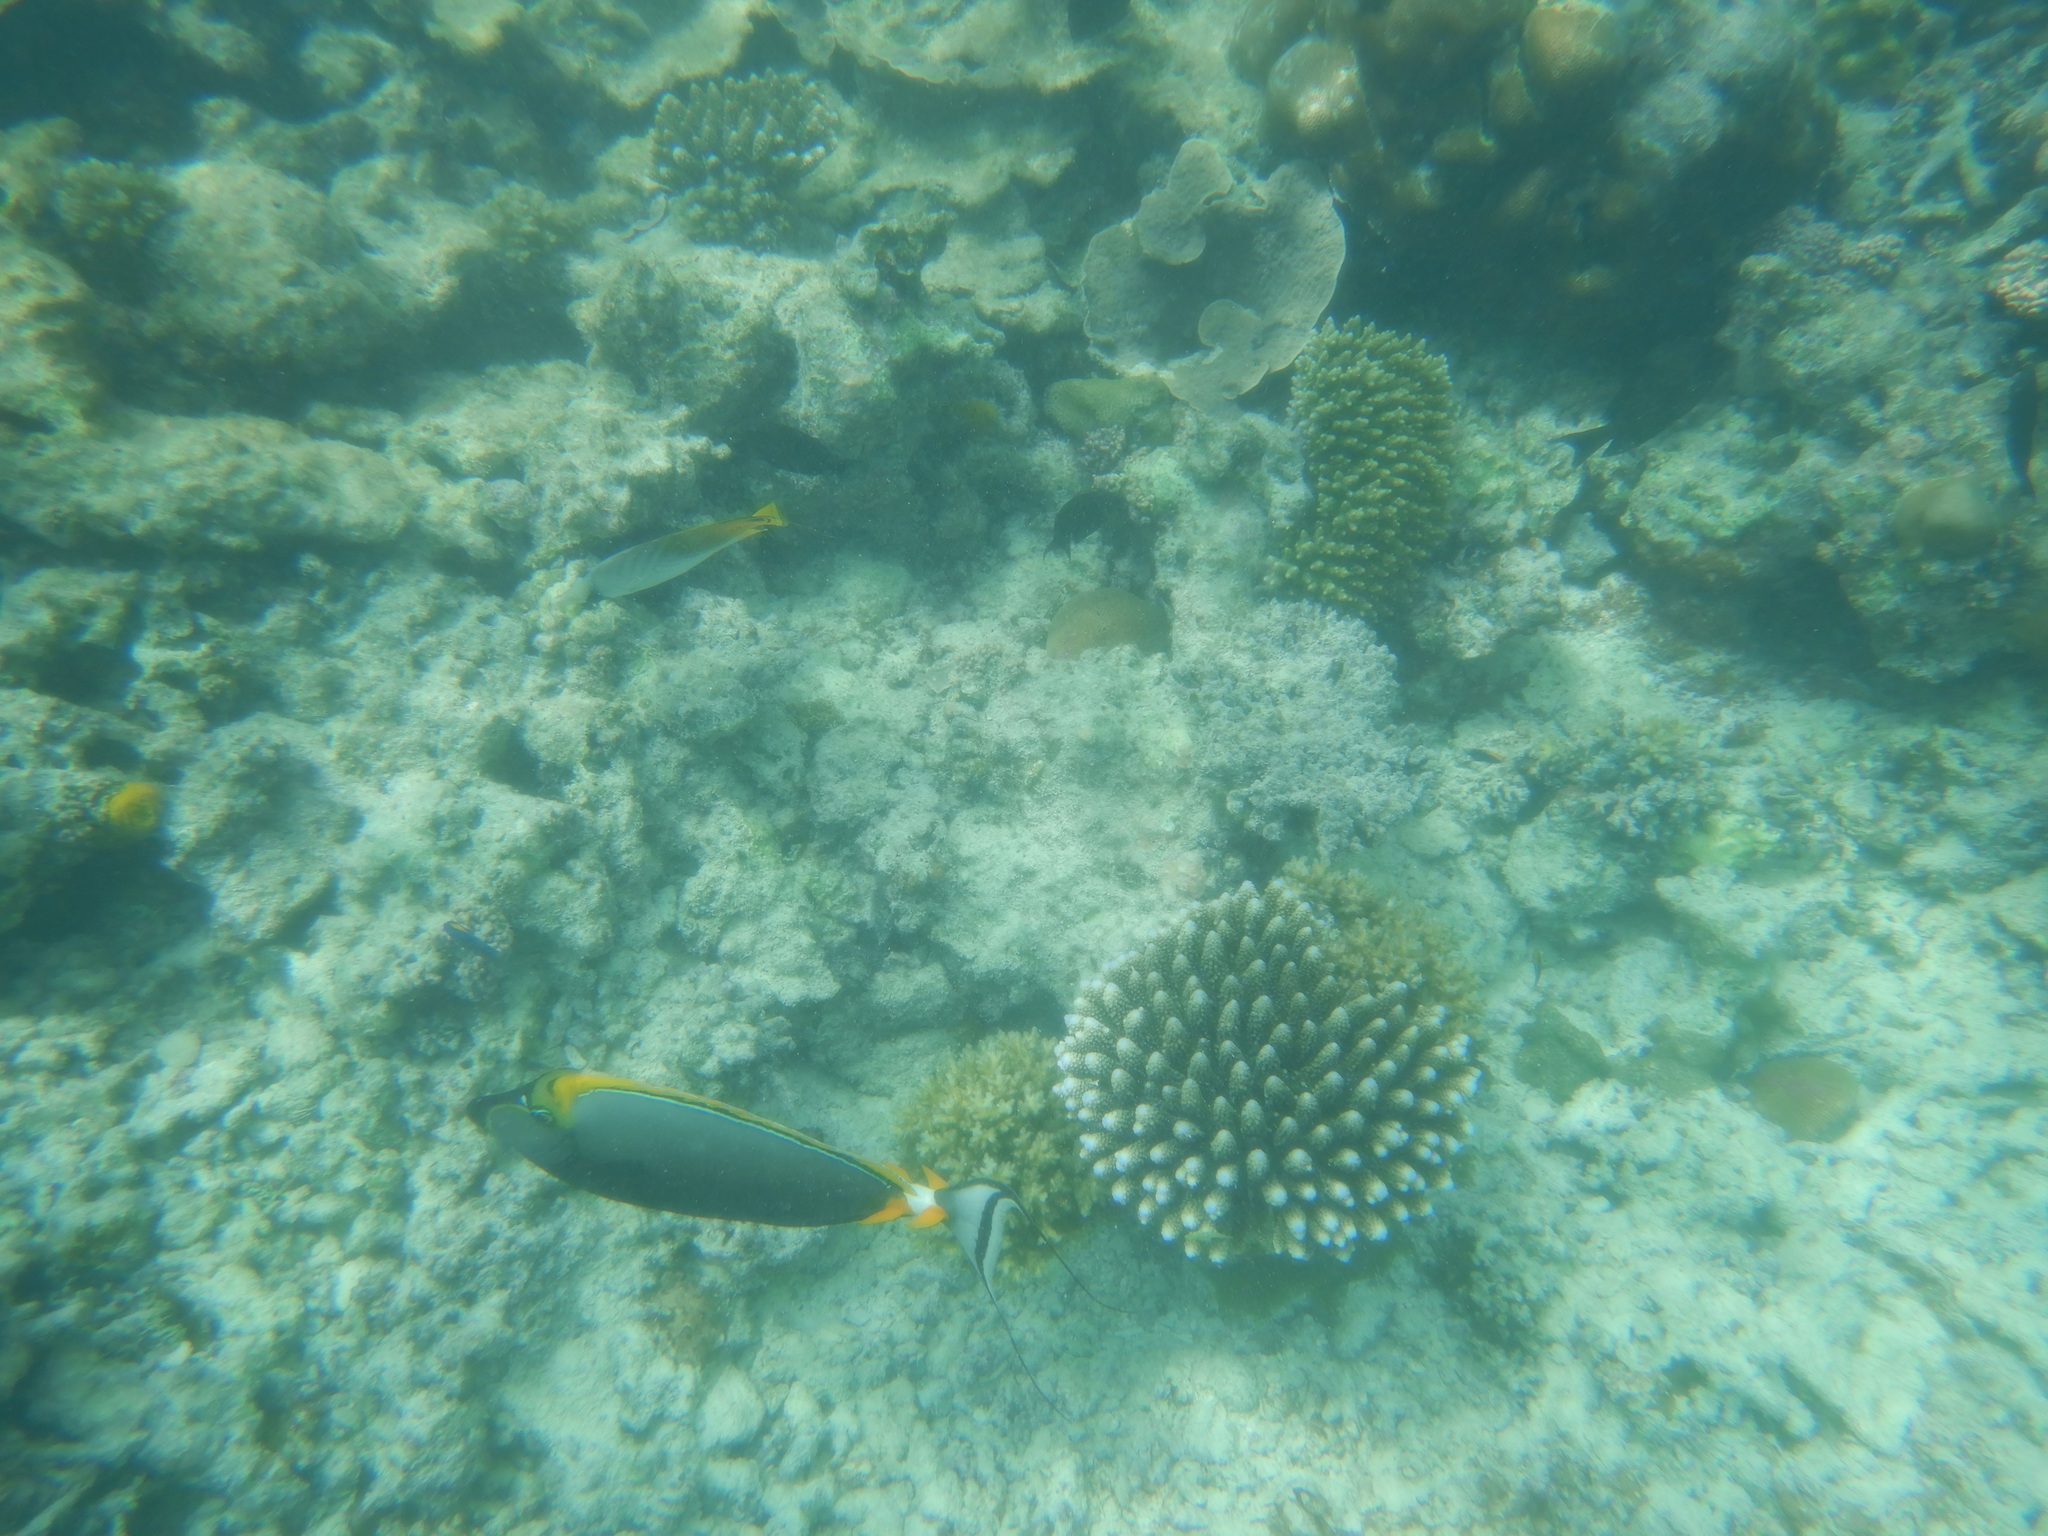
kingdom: Animalia
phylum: Chordata
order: Perciformes
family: Acanthuridae
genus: Naso
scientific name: Naso elegans
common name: Orangespine unicornfish
